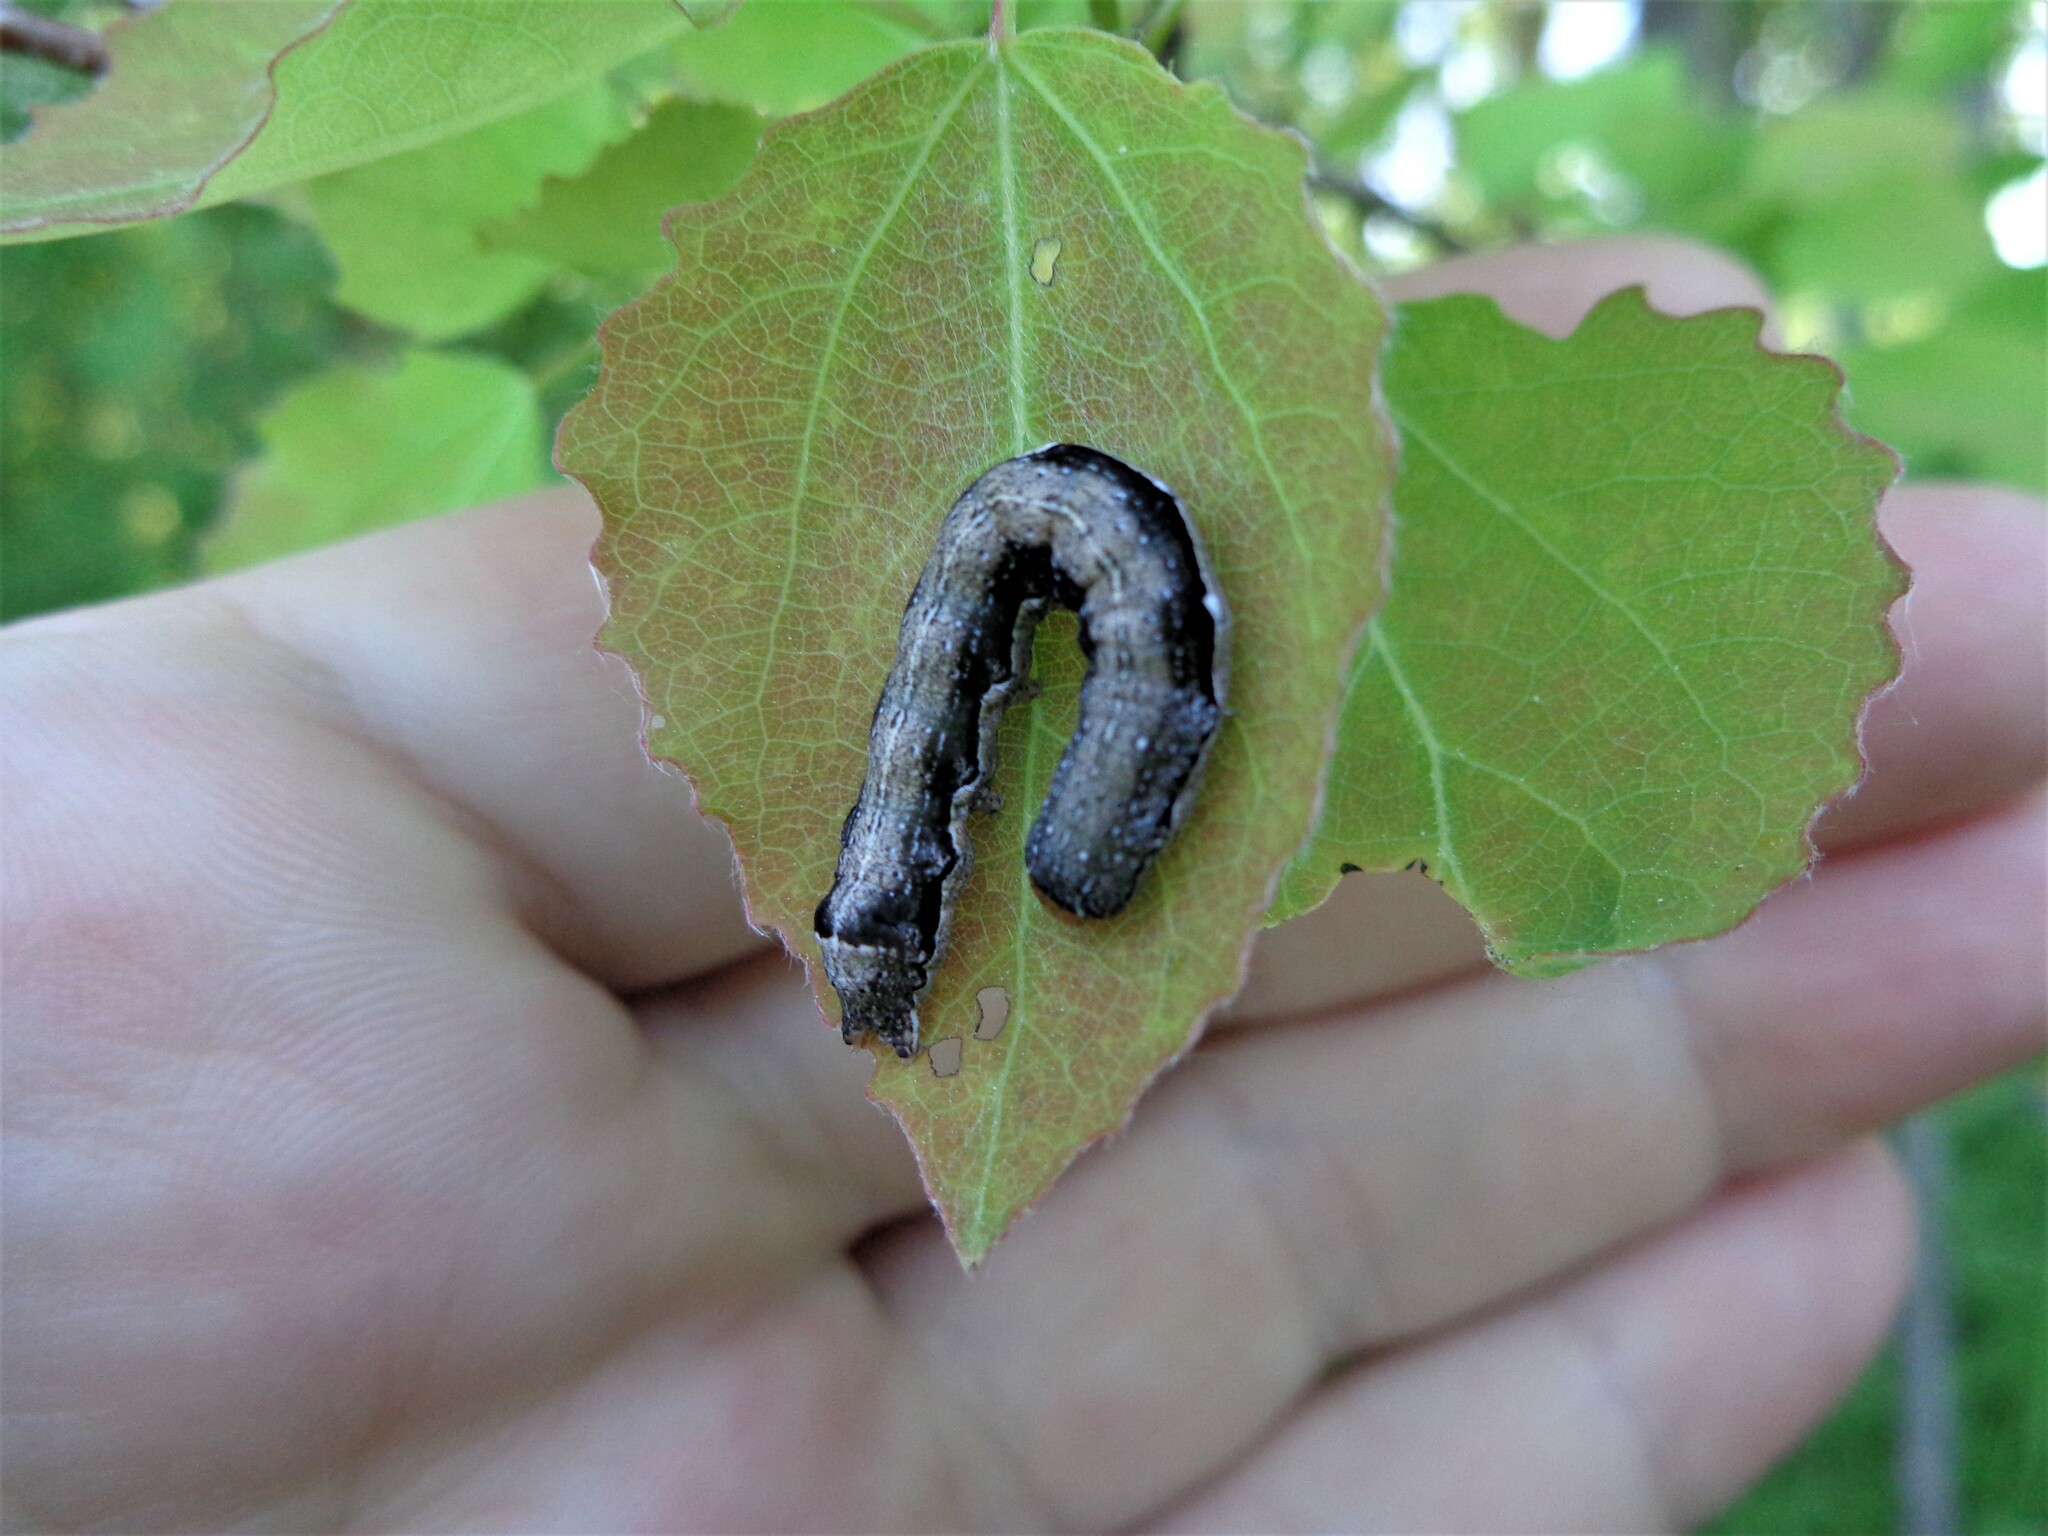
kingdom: Animalia
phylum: Arthropoda
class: Insecta
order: Lepidoptera
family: Noctuidae
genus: Anorthoa
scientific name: Anorthoa munda
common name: Twin-spotted quaker
